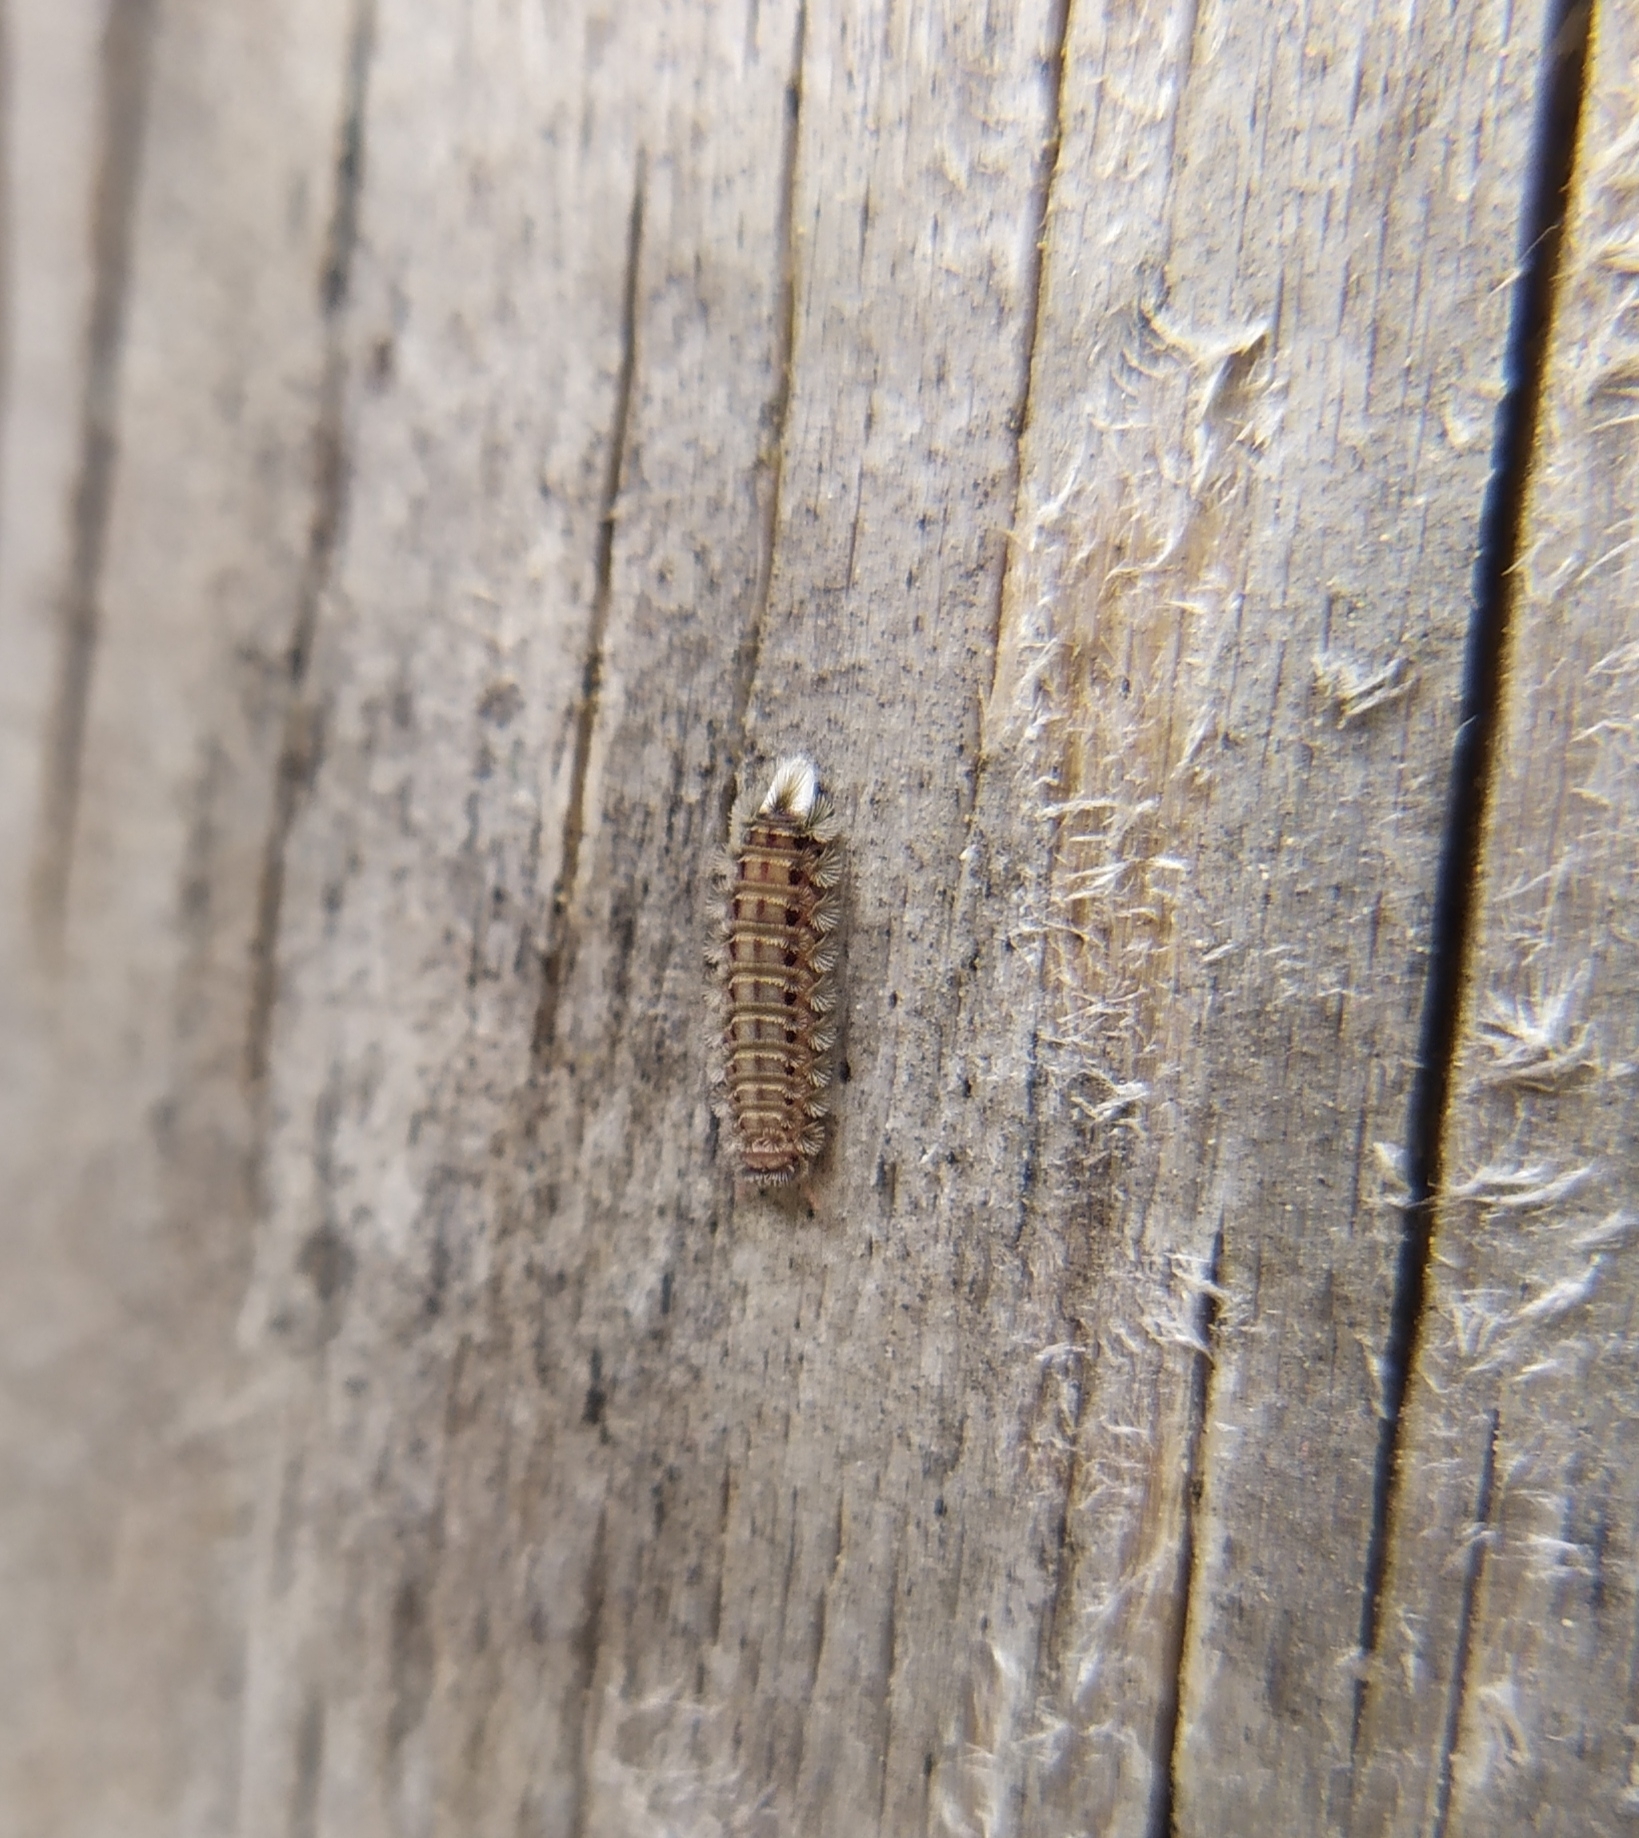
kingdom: Animalia
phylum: Arthropoda
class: Diplopoda
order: Polyxenida
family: Polyxenidae
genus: Polyxenus
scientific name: Polyxenus lagurus
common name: Bristly millipede
